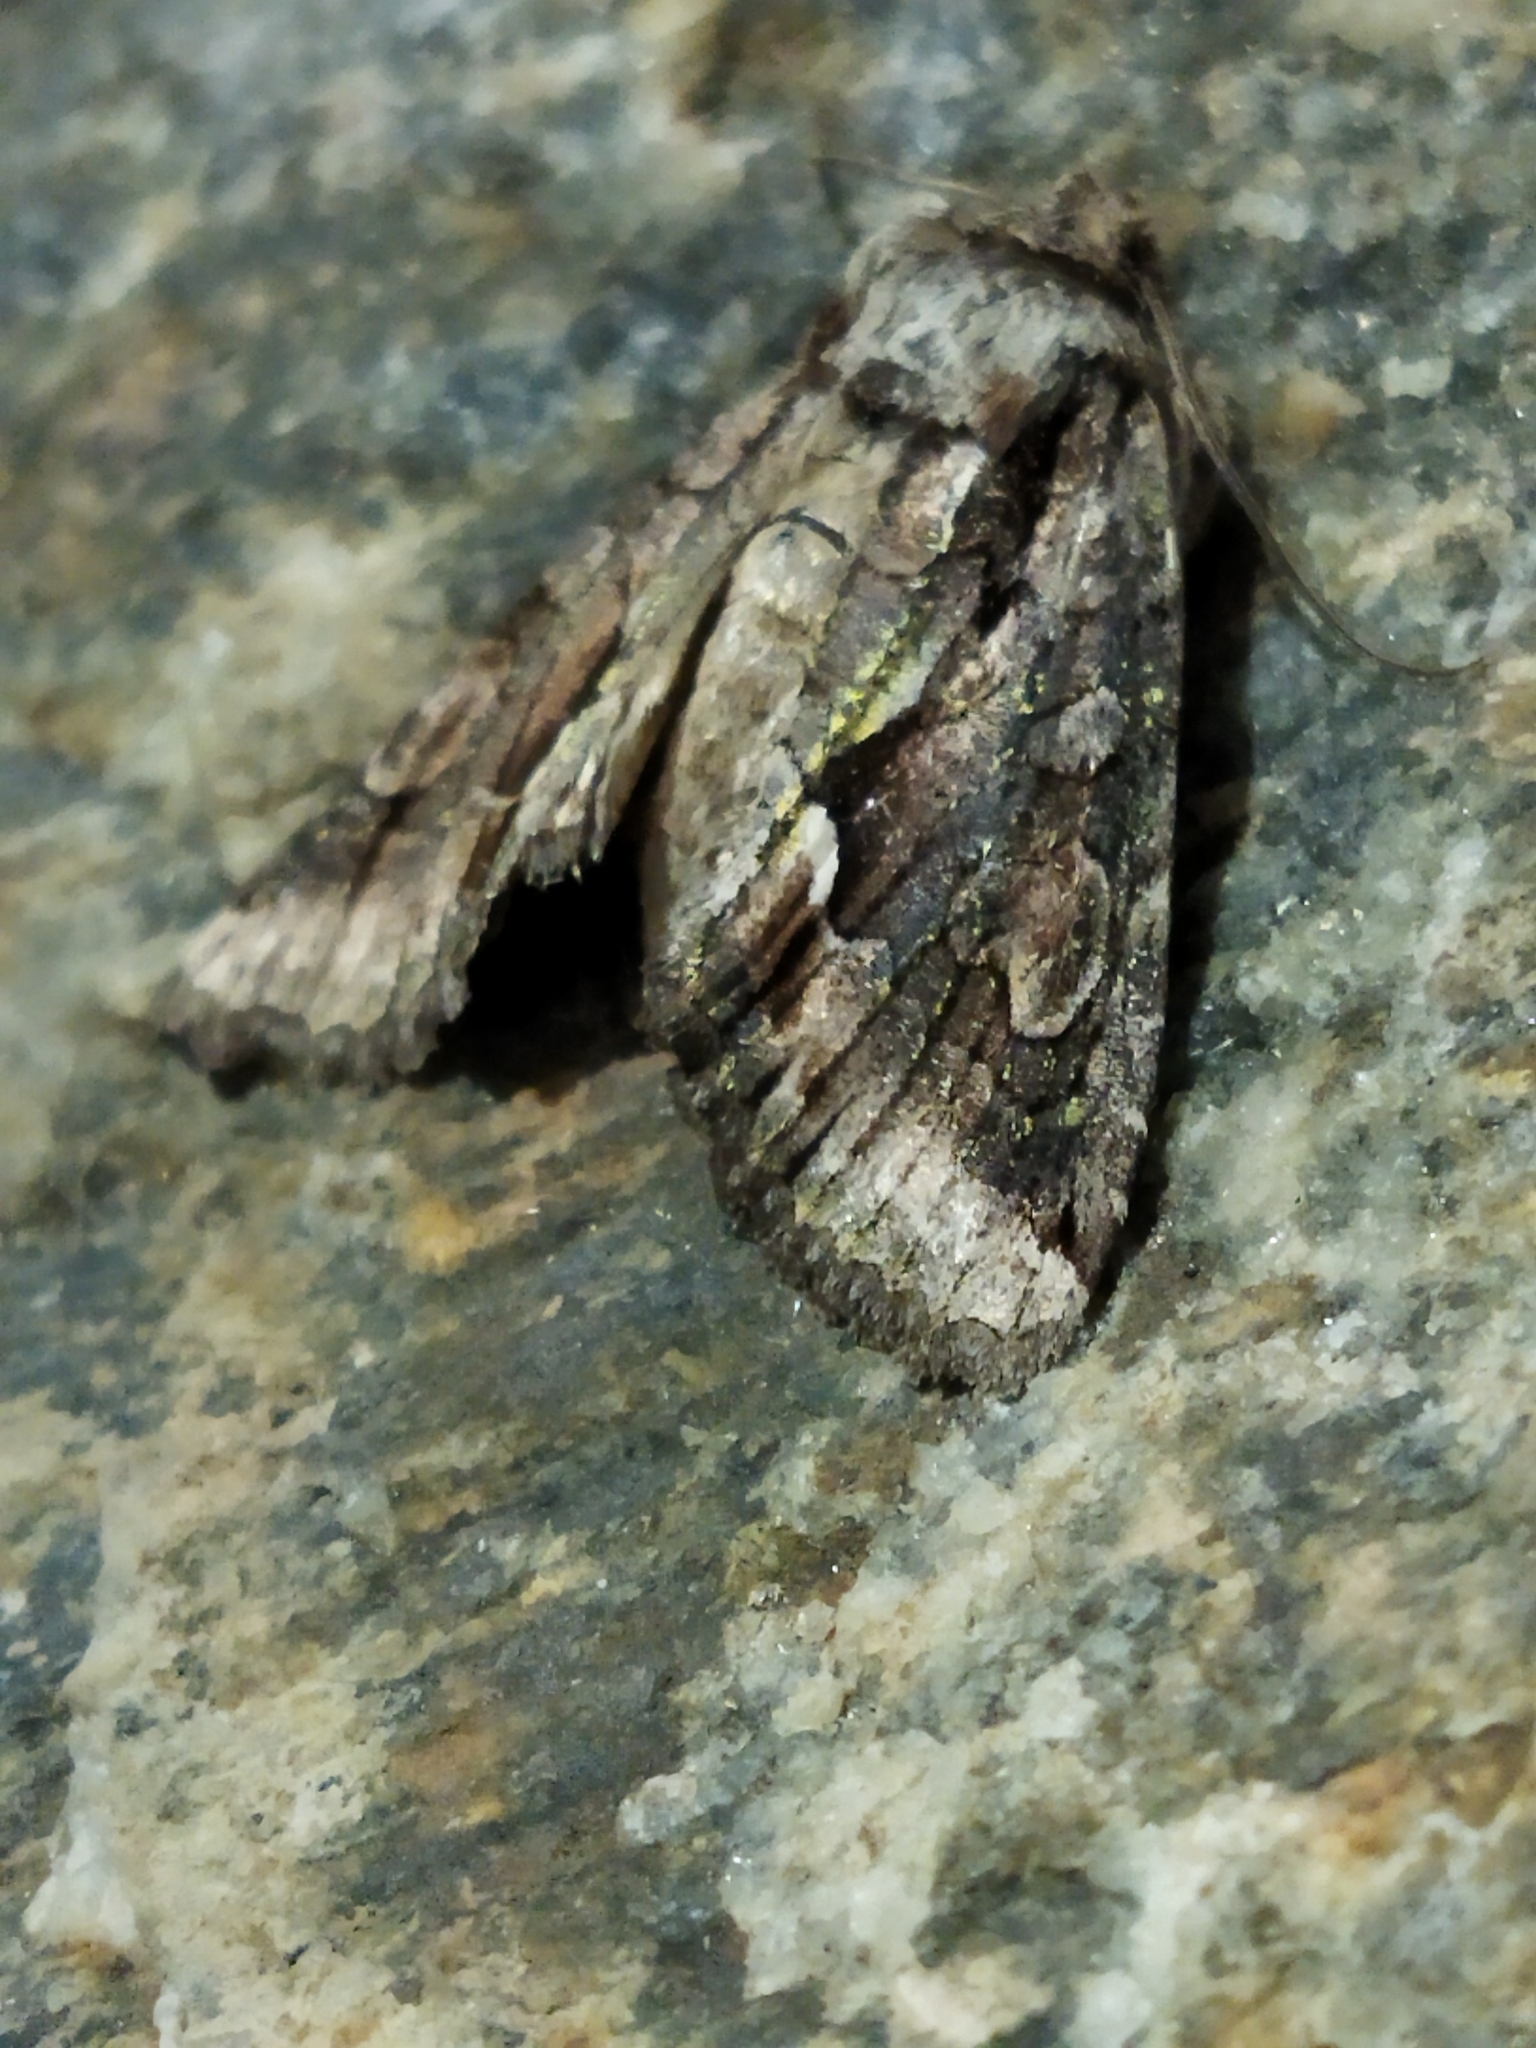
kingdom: Animalia
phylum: Arthropoda
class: Insecta
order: Lepidoptera
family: Noctuidae
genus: Allophyes
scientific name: Allophyes oxyacanthae
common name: Green-brindled crescent
